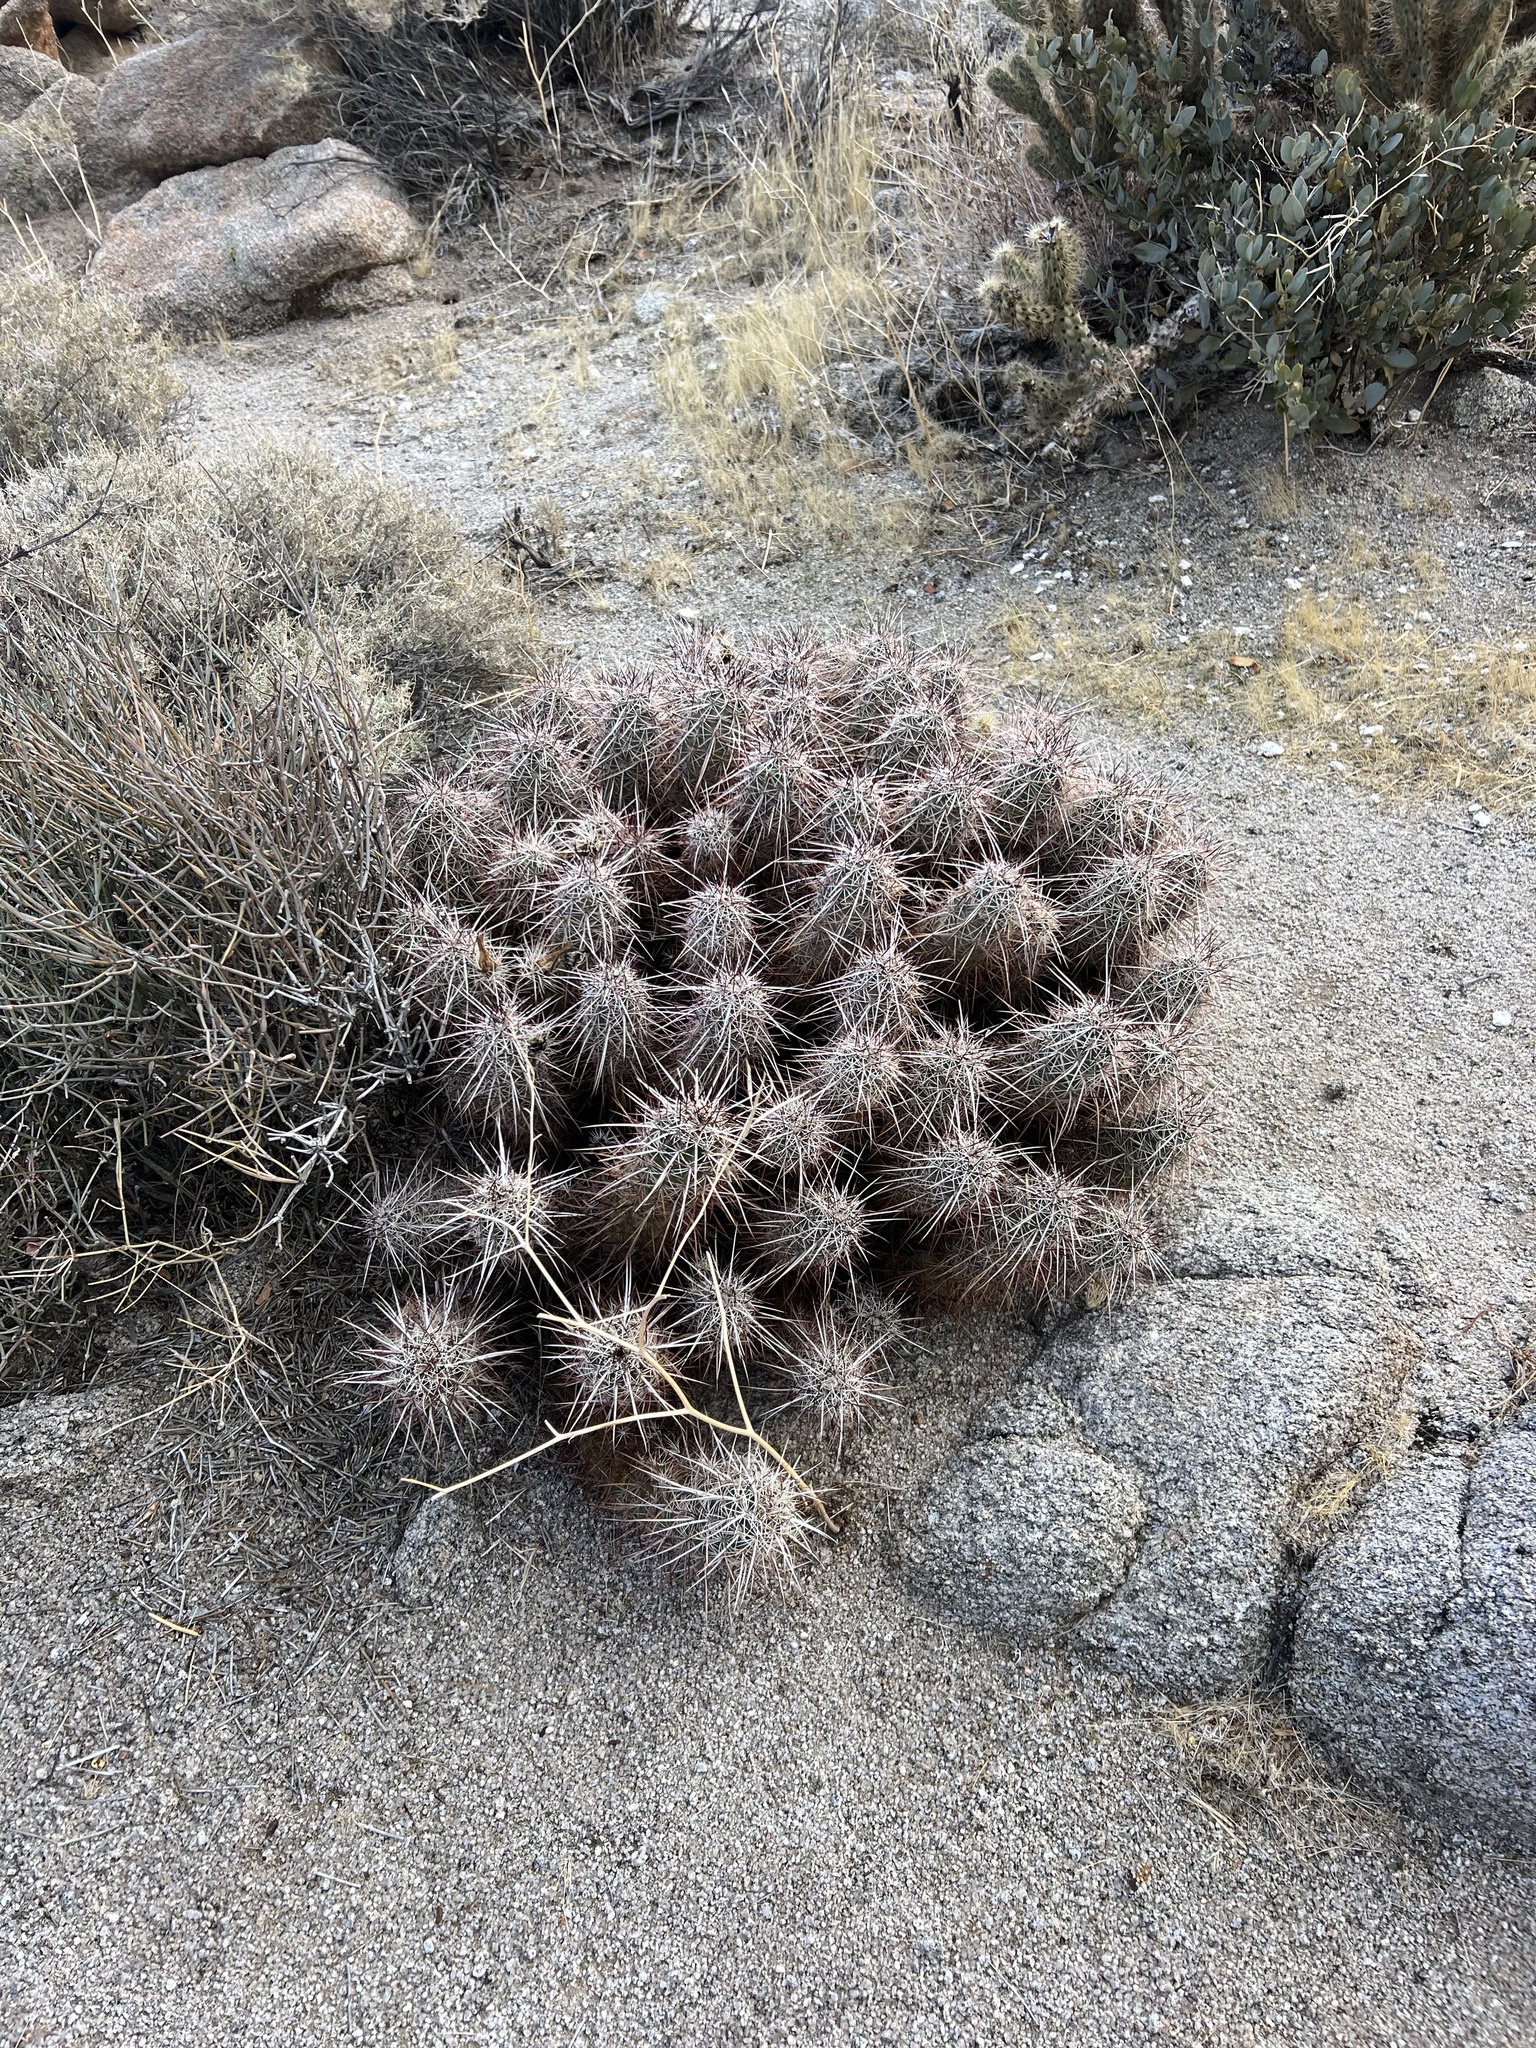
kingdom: Plantae
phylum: Tracheophyta
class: Magnoliopsida
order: Caryophyllales
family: Cactaceae
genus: Echinocereus
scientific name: Echinocereus engelmannii
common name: Engelmann's hedgehog cactus
